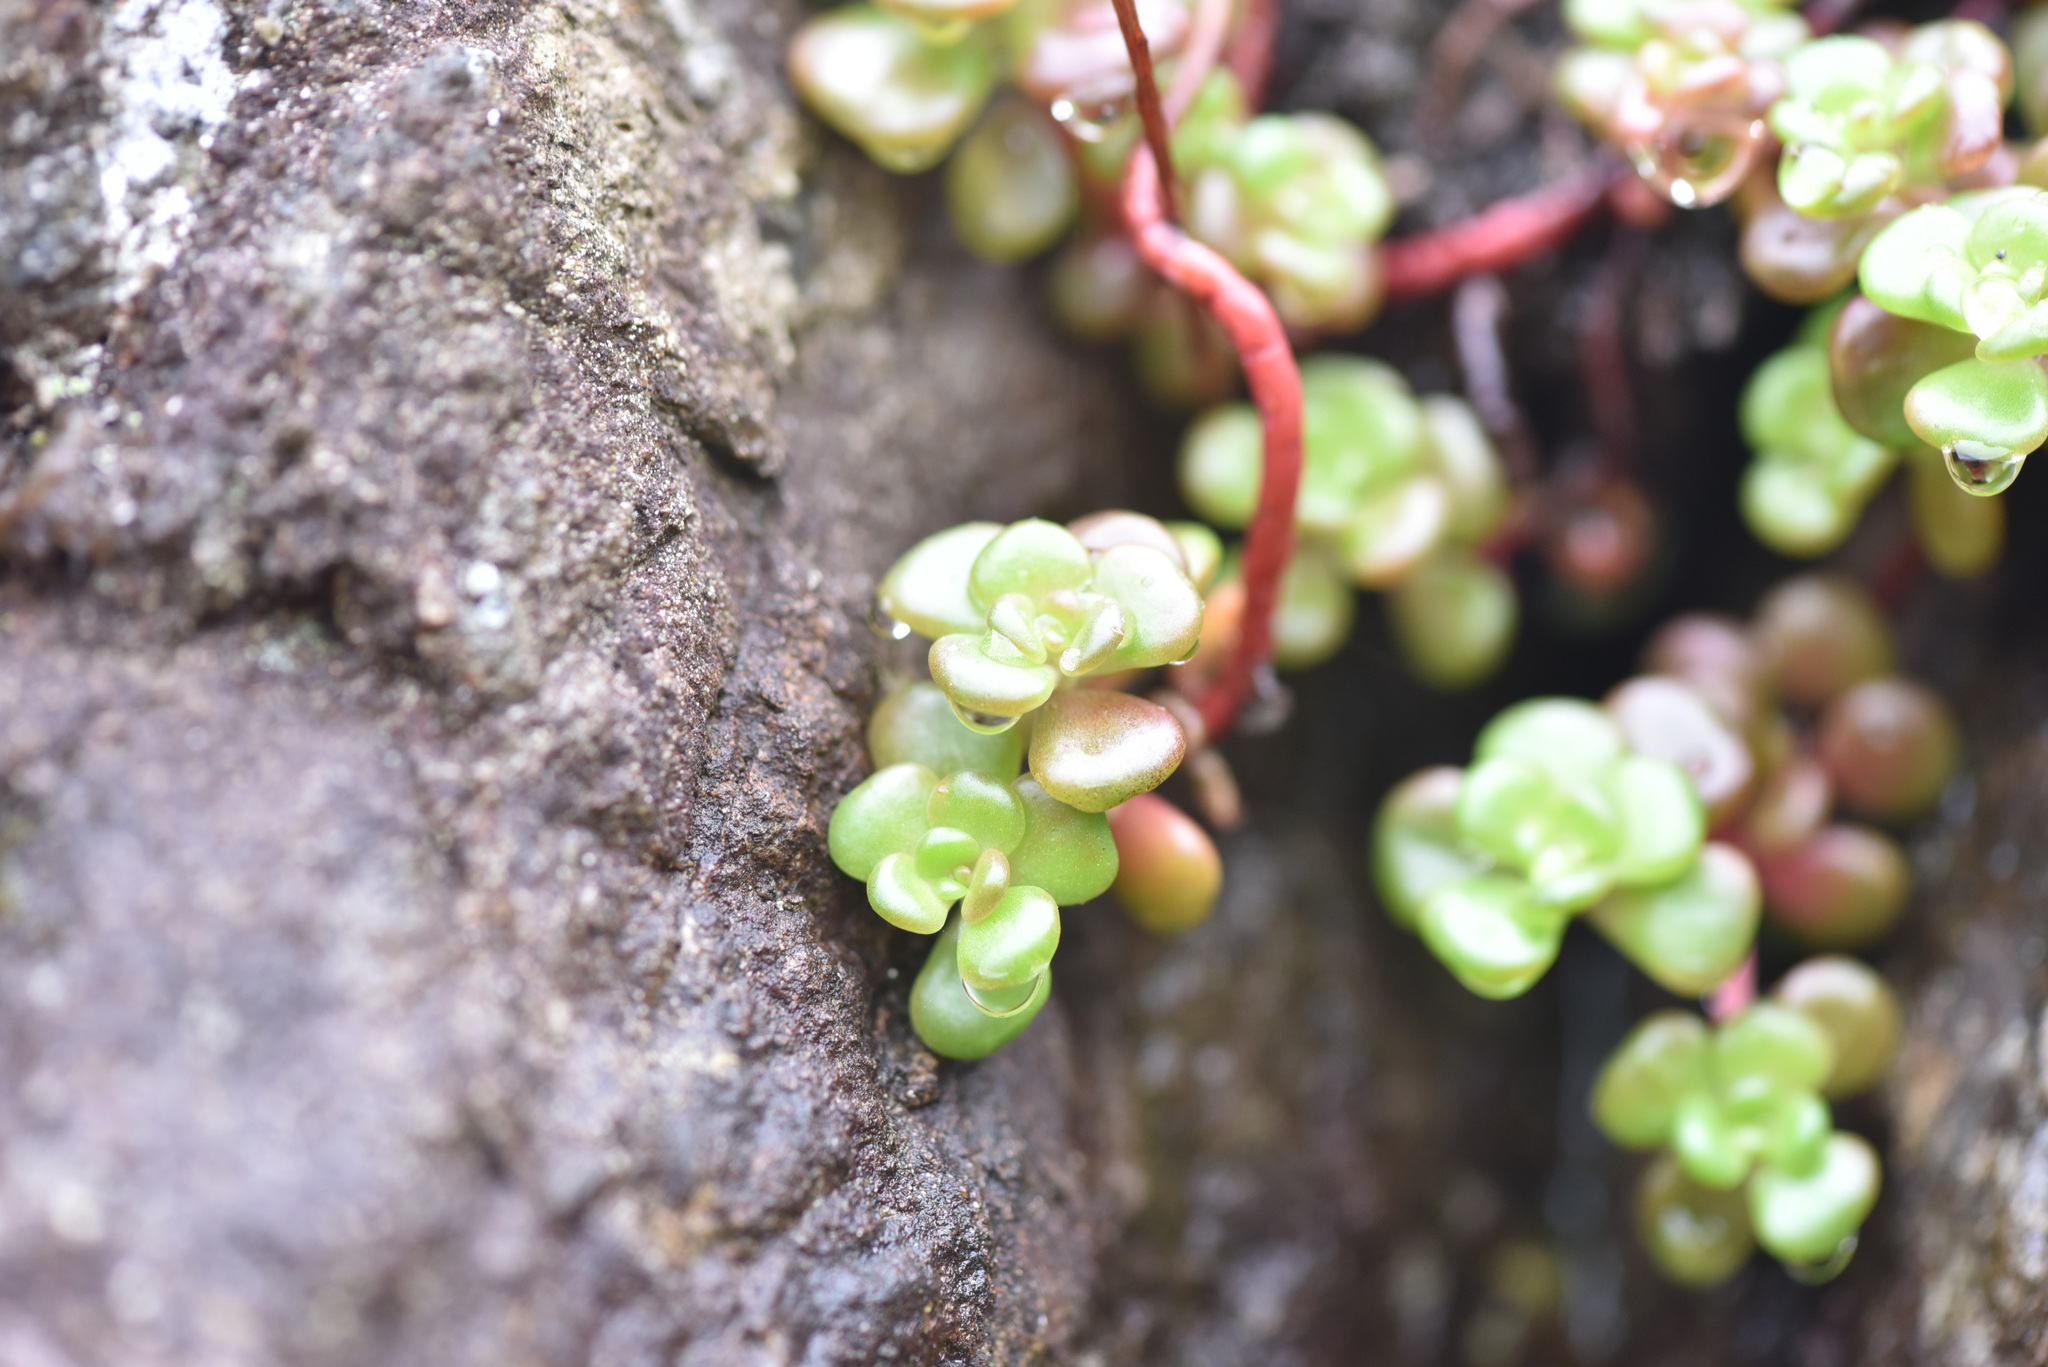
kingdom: Plantae
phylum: Tracheophyta
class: Magnoliopsida
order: Saxifragales
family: Crassulaceae
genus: Sedum
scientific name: Sedum oreganum
